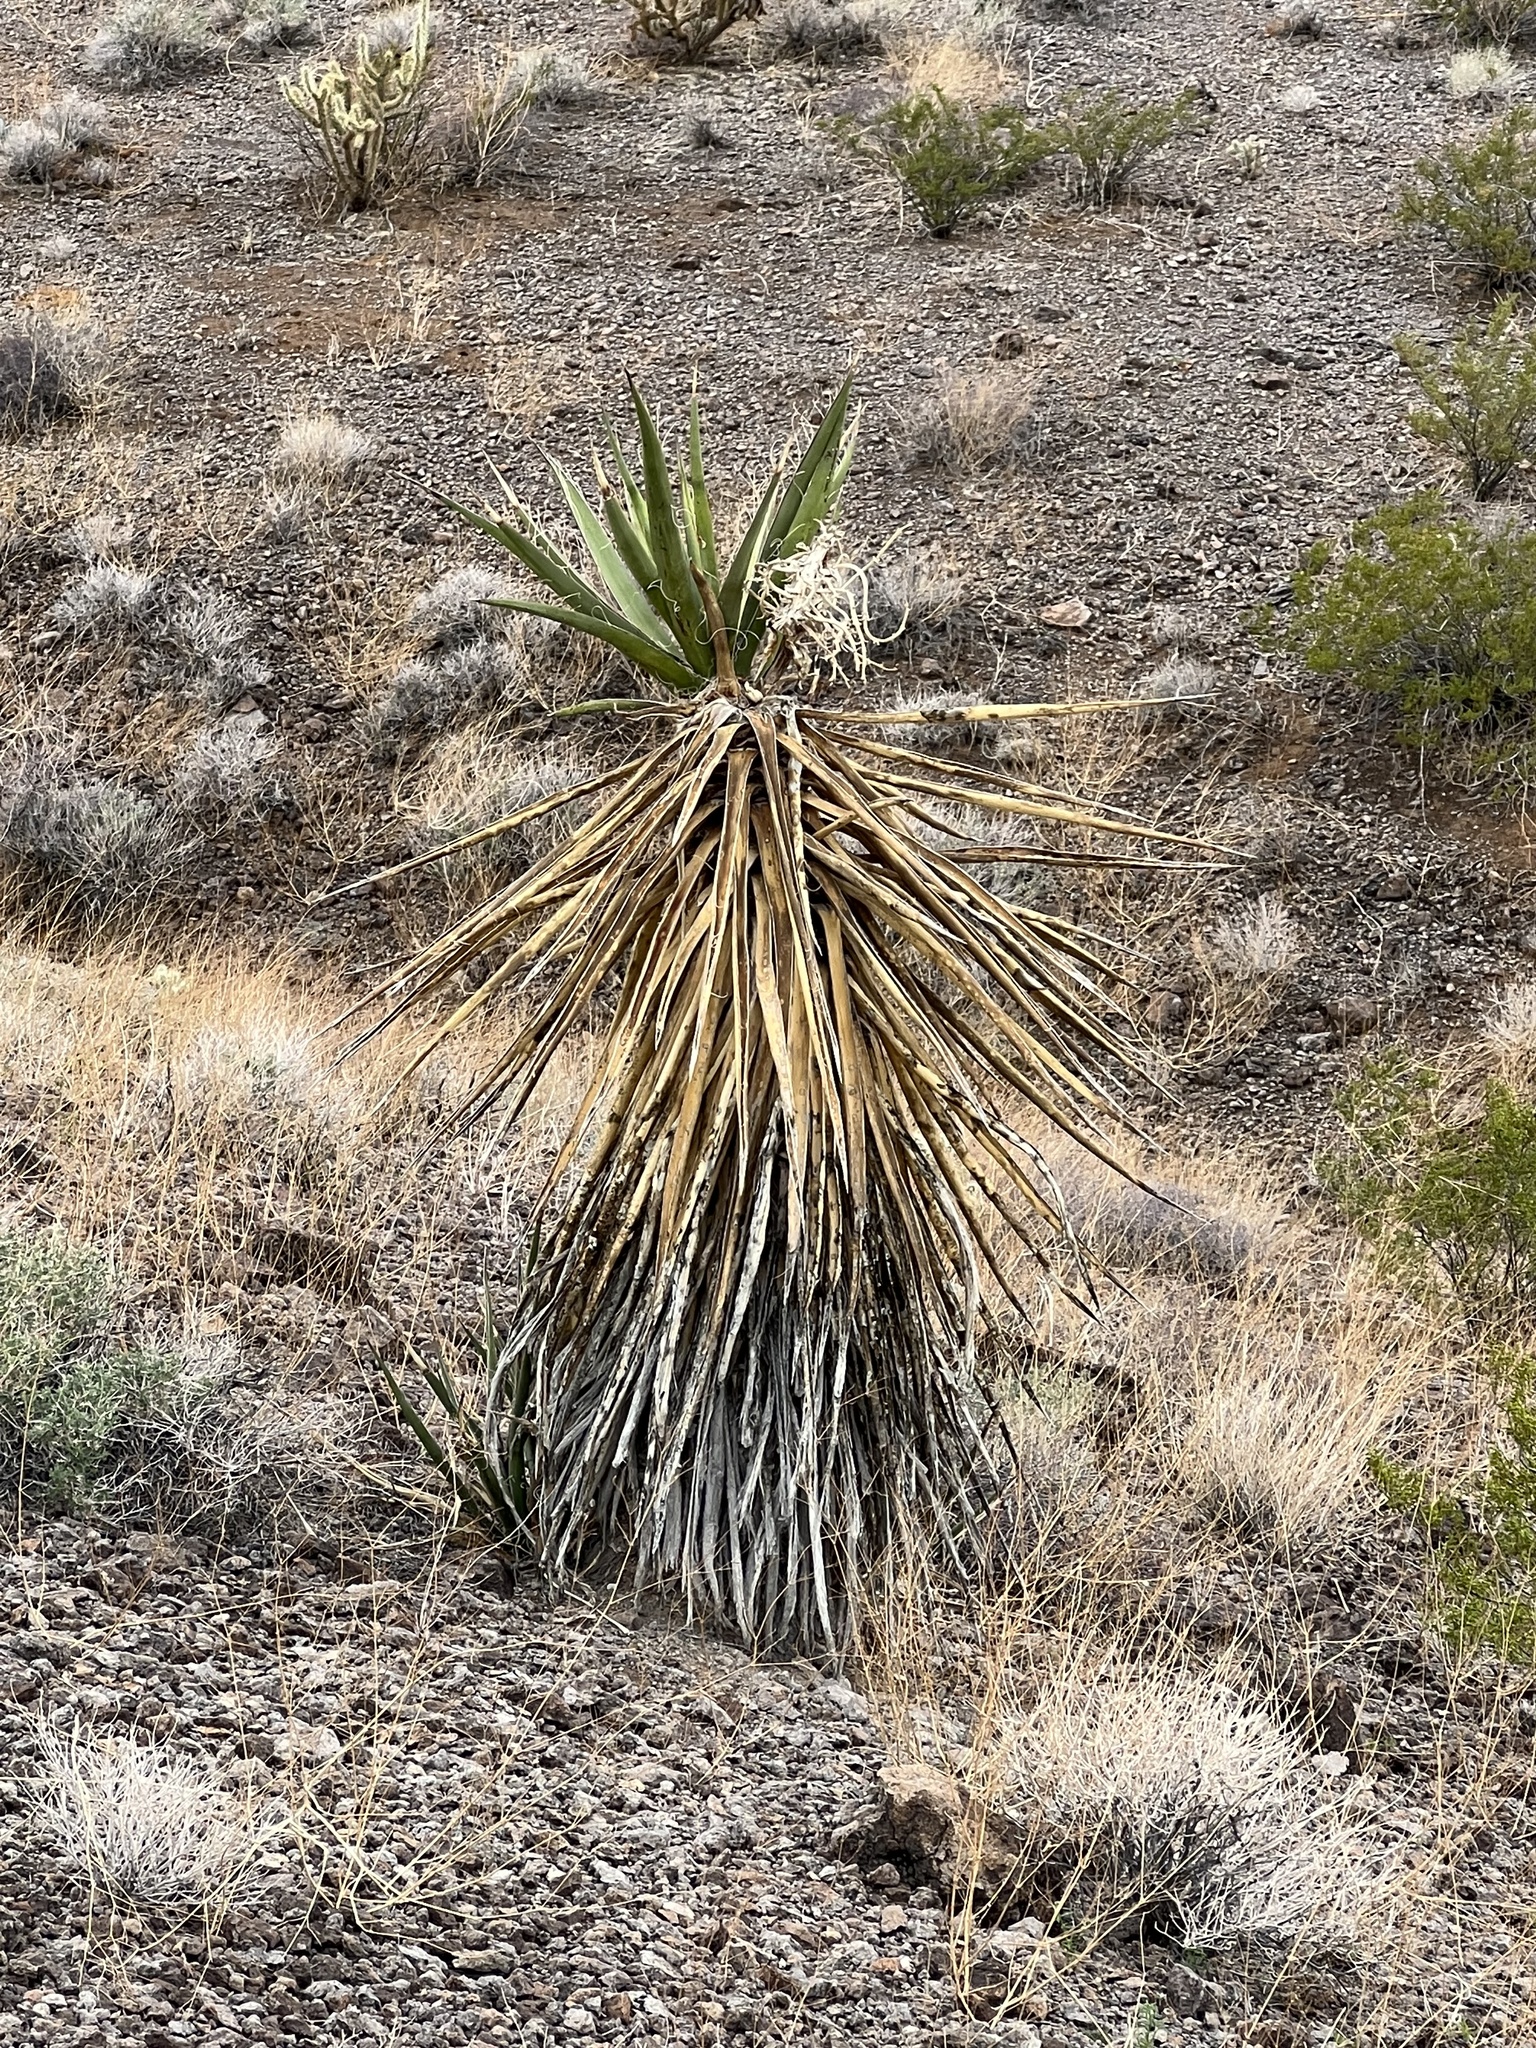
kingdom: Plantae
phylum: Tracheophyta
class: Liliopsida
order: Asparagales
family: Asparagaceae
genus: Yucca
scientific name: Yucca schidigera
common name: Mojave yucca
